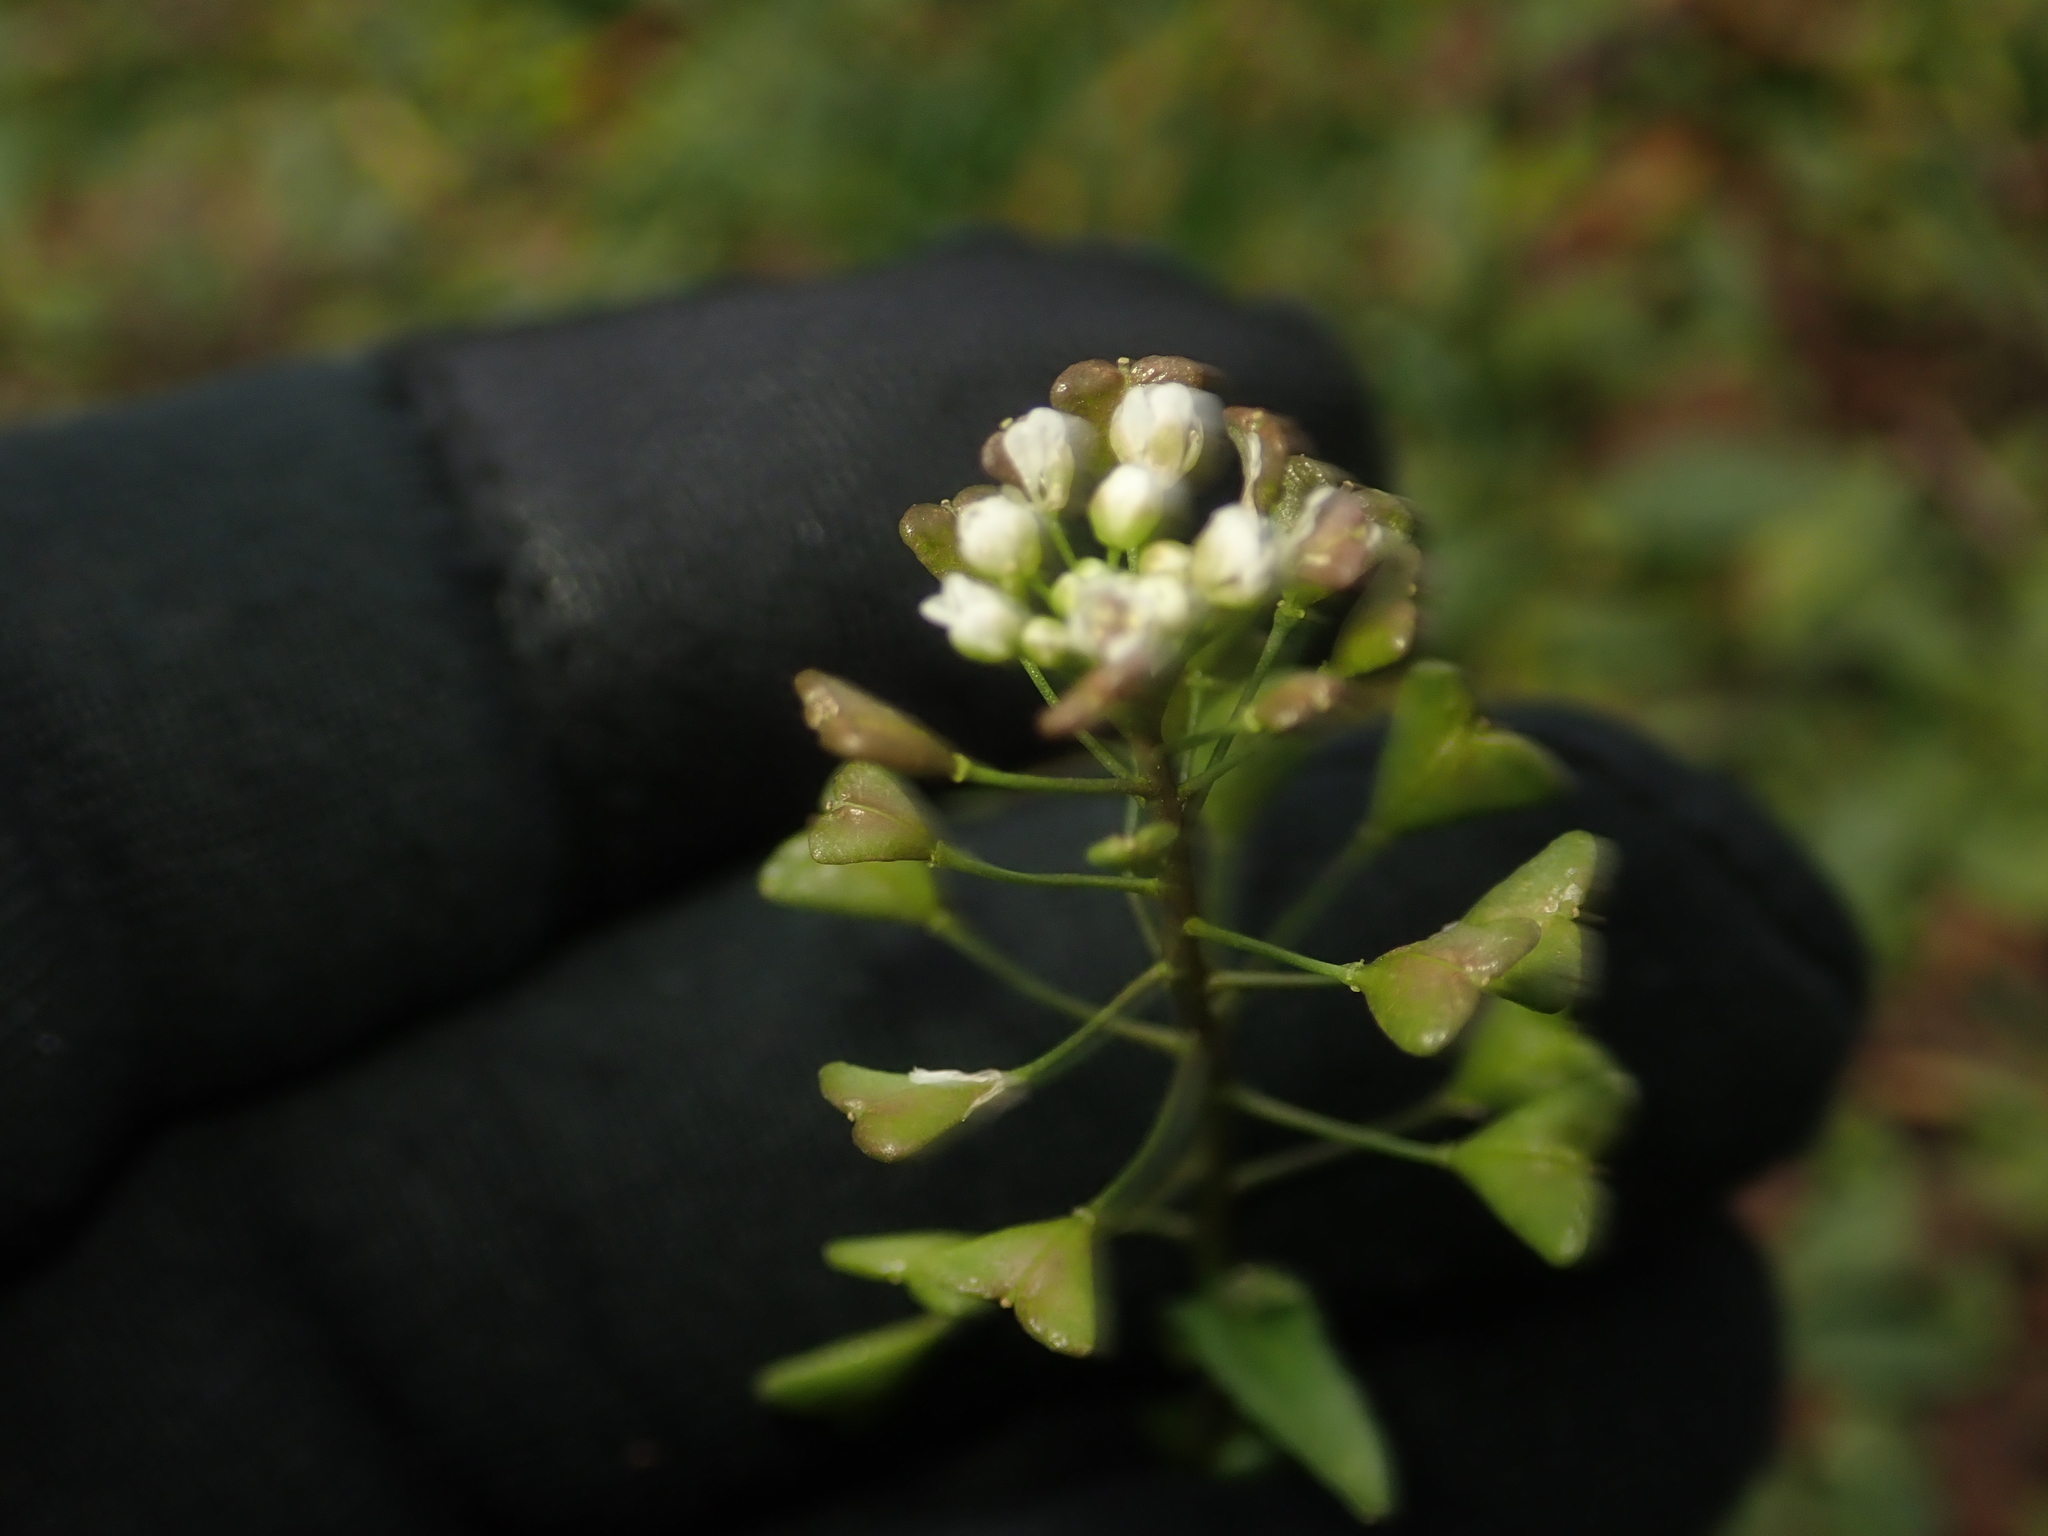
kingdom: Plantae
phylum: Tracheophyta
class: Magnoliopsida
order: Brassicales
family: Brassicaceae
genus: Capsella
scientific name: Capsella bursa-pastoris
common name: Shepherd's purse
